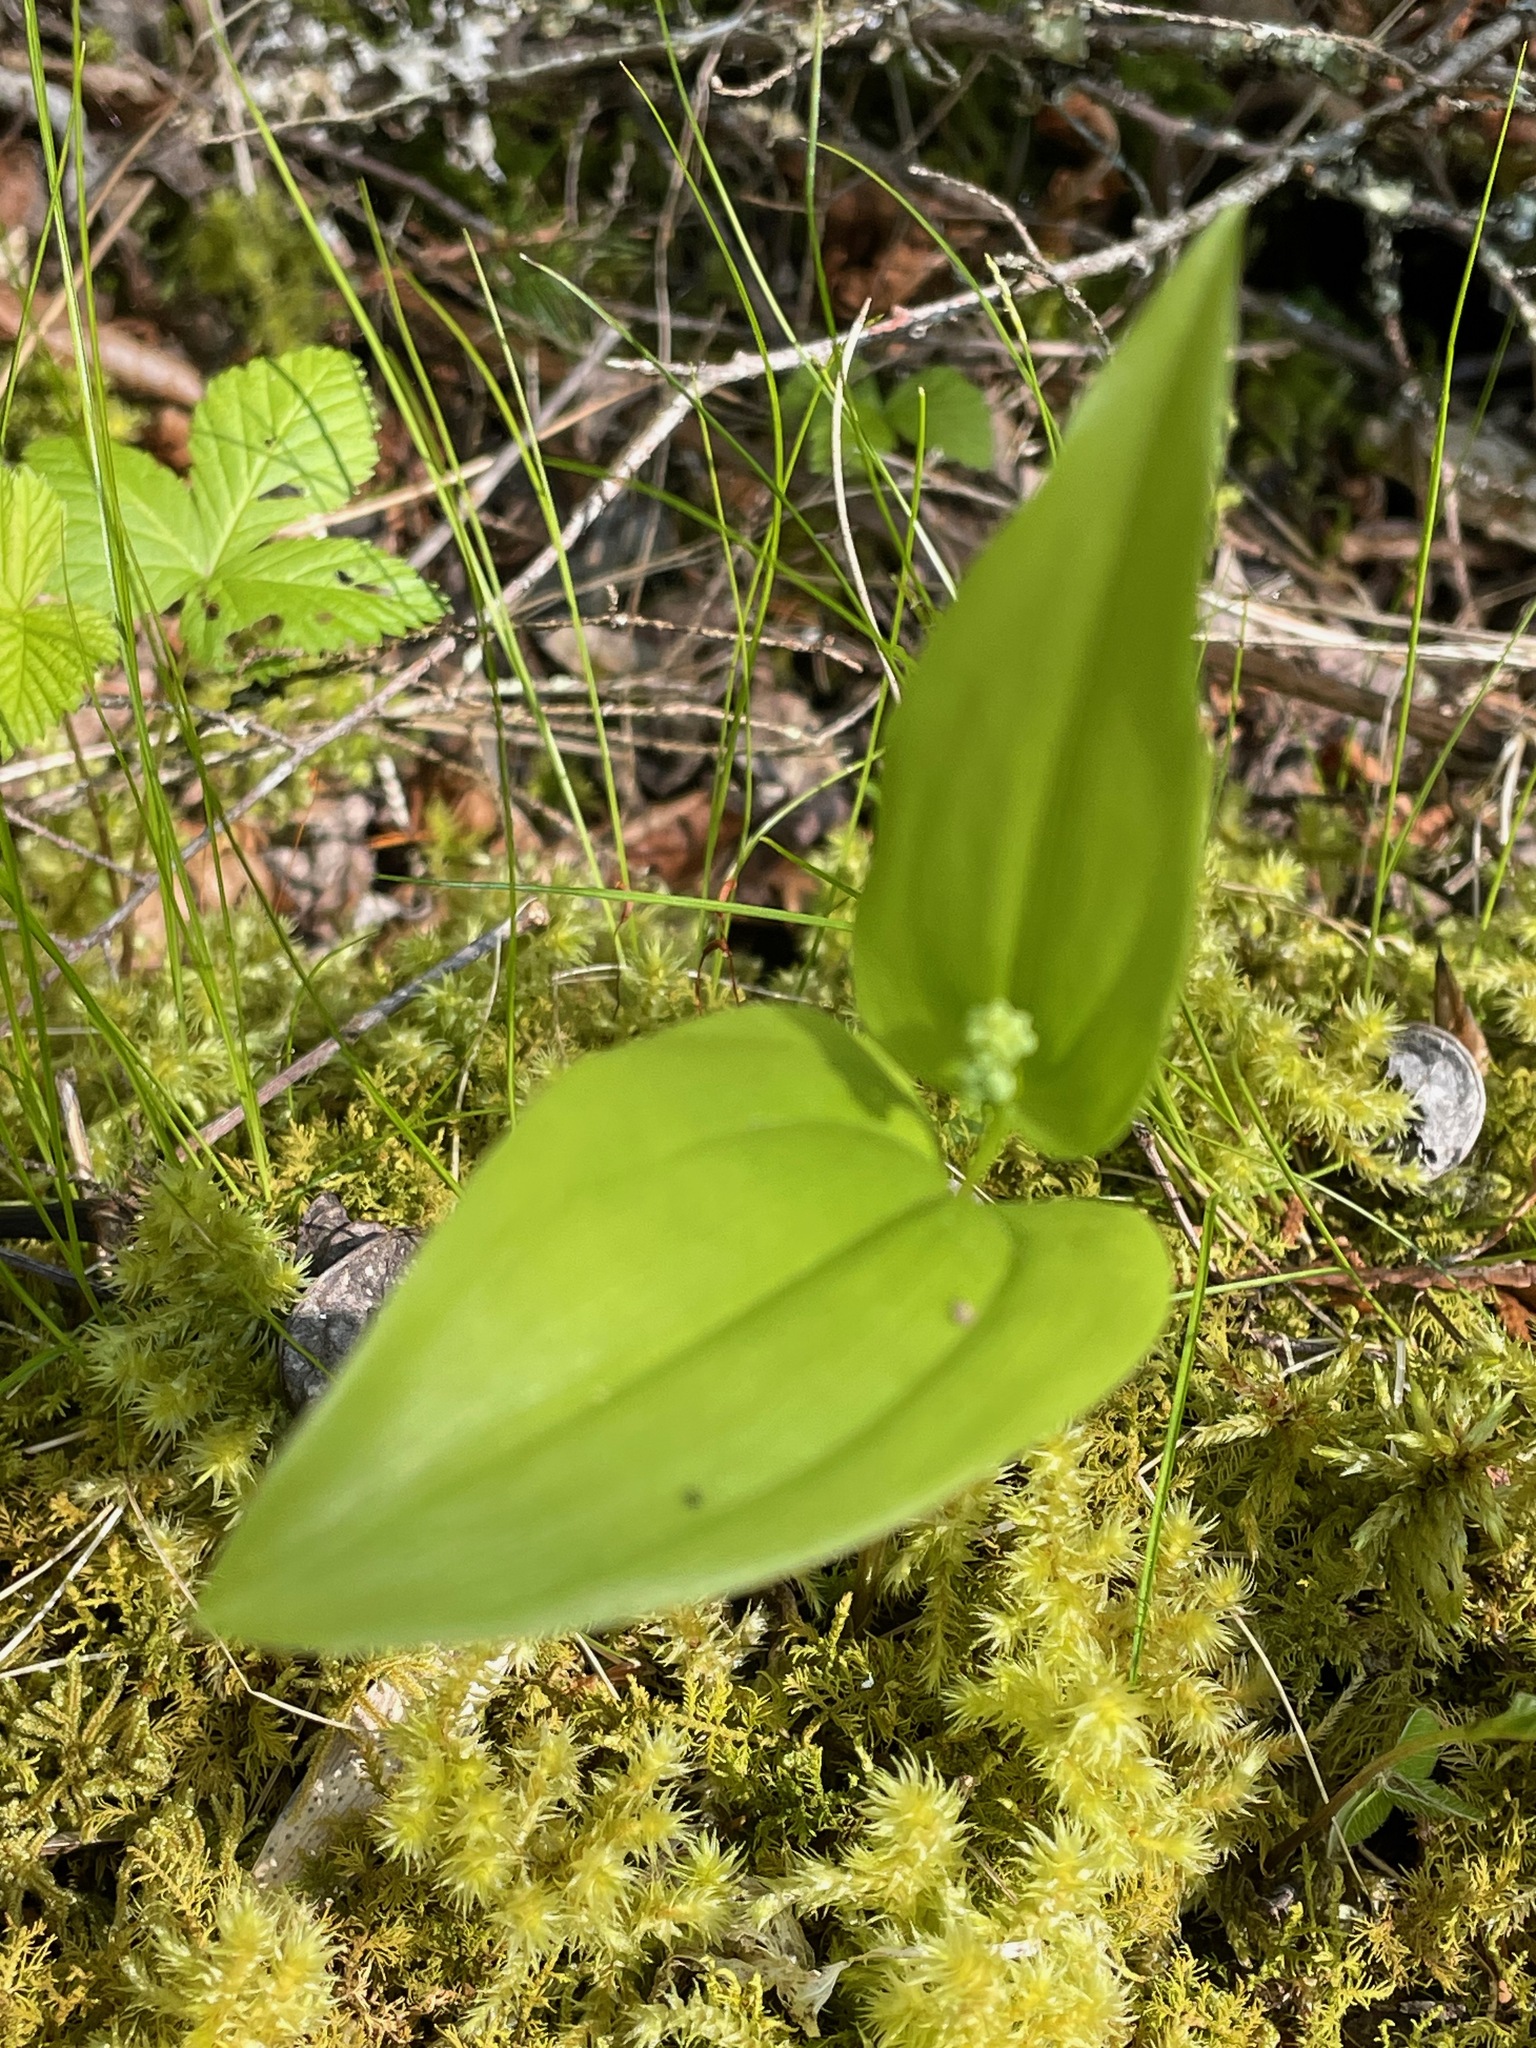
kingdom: Plantae
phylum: Tracheophyta
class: Liliopsida
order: Asparagales
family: Asparagaceae
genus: Maianthemum
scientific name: Maianthemum canadense
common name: False lily-of-the-valley
